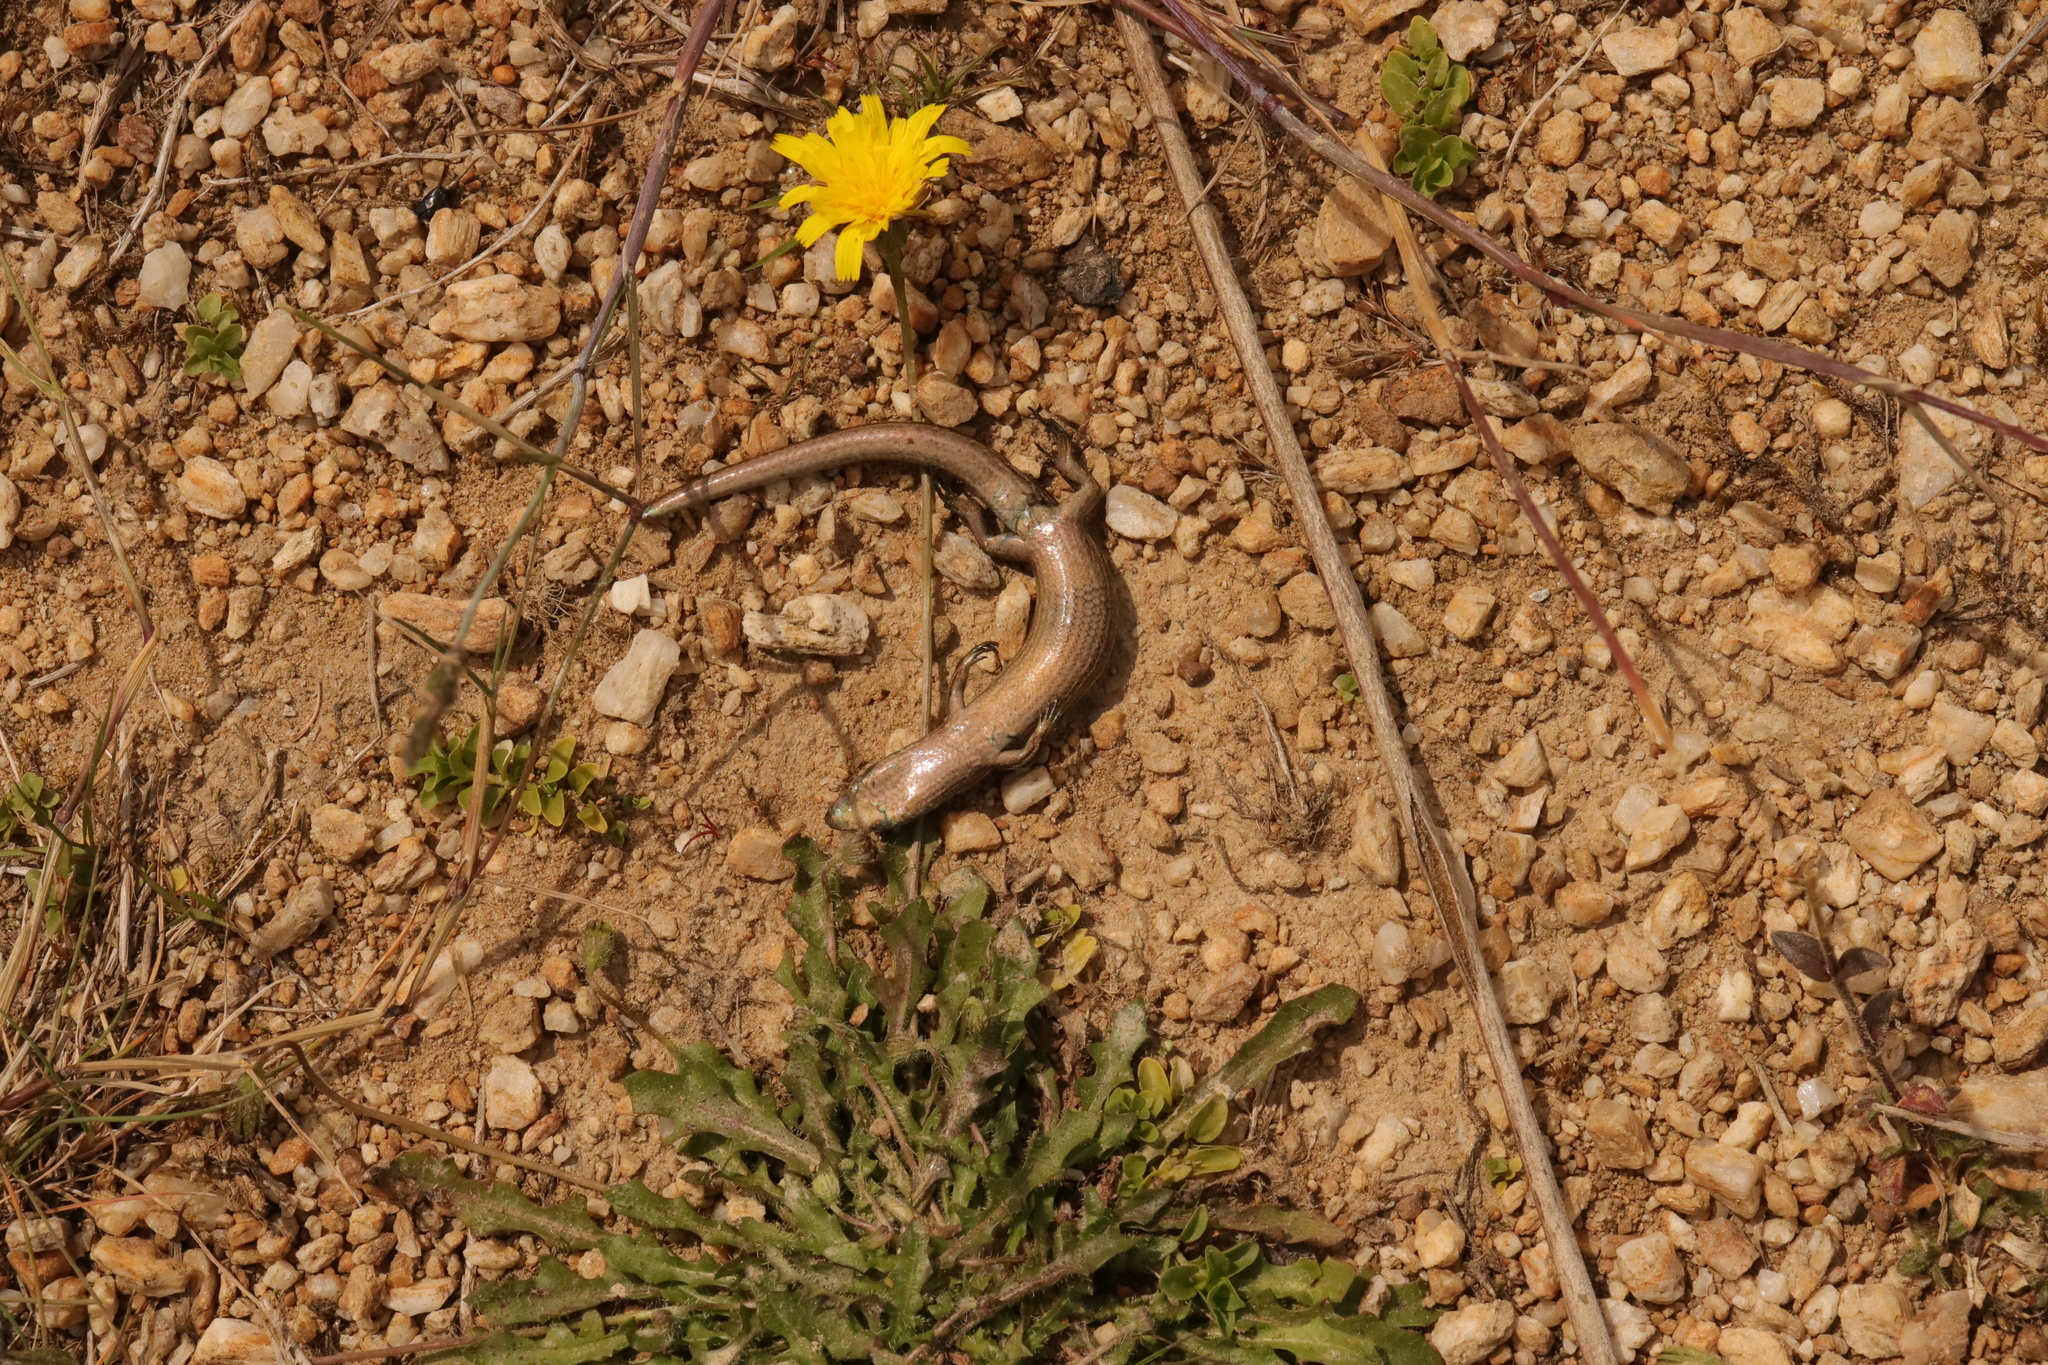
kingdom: Animalia
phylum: Chordata
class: Squamata
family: Scincidae
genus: Oligosoma
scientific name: Oligosoma polychroma
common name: Common new zealand skink
